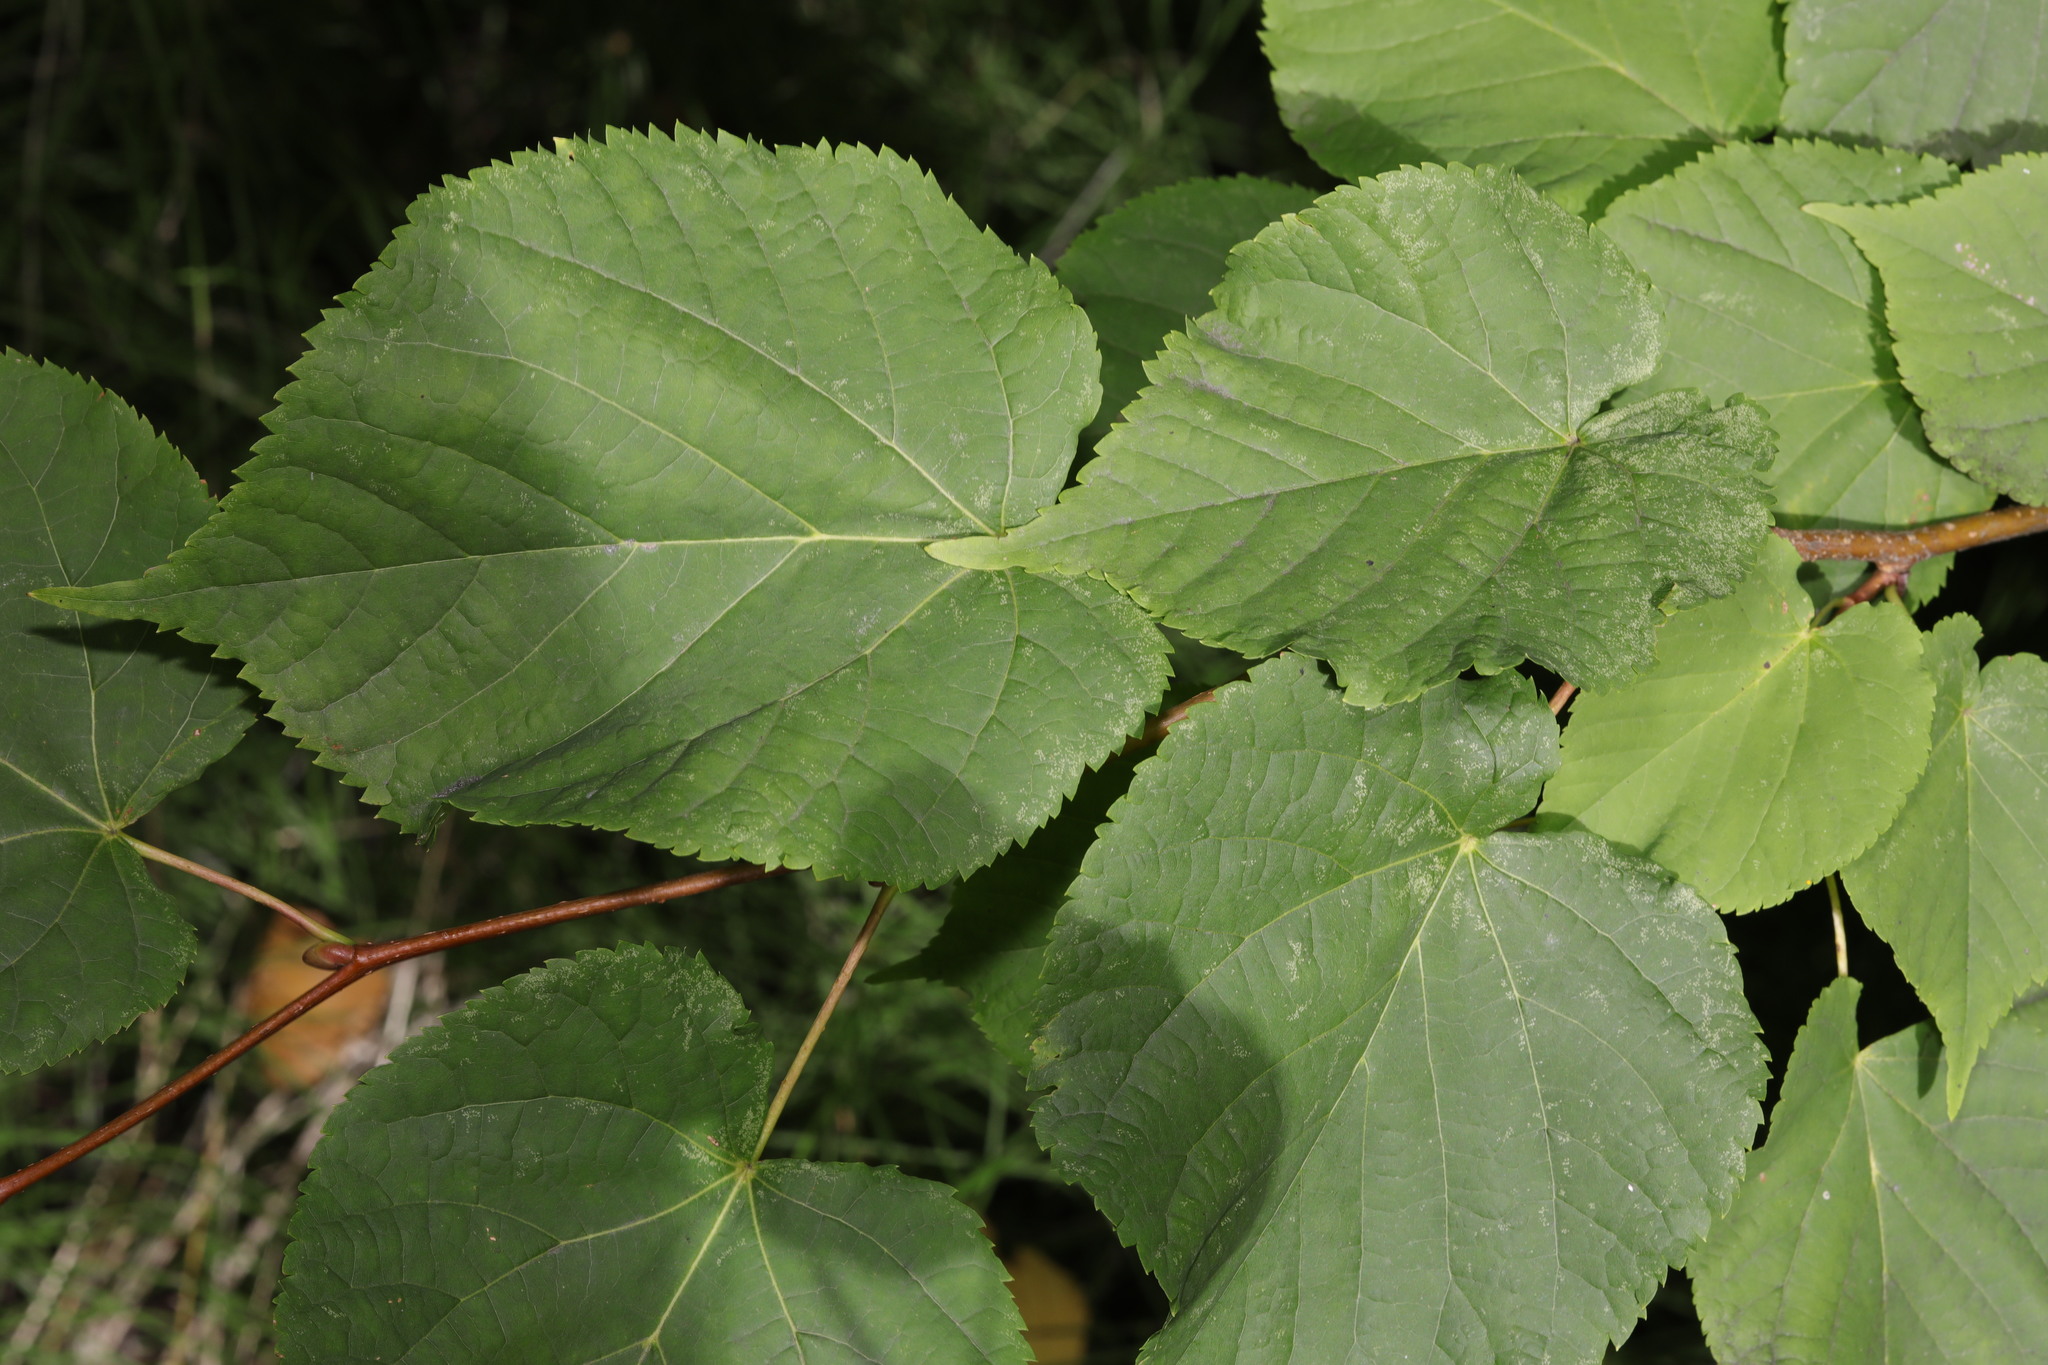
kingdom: Plantae
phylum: Tracheophyta
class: Magnoliopsida
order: Malvales
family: Malvaceae
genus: Tilia
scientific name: Tilia europaea
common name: European linden
